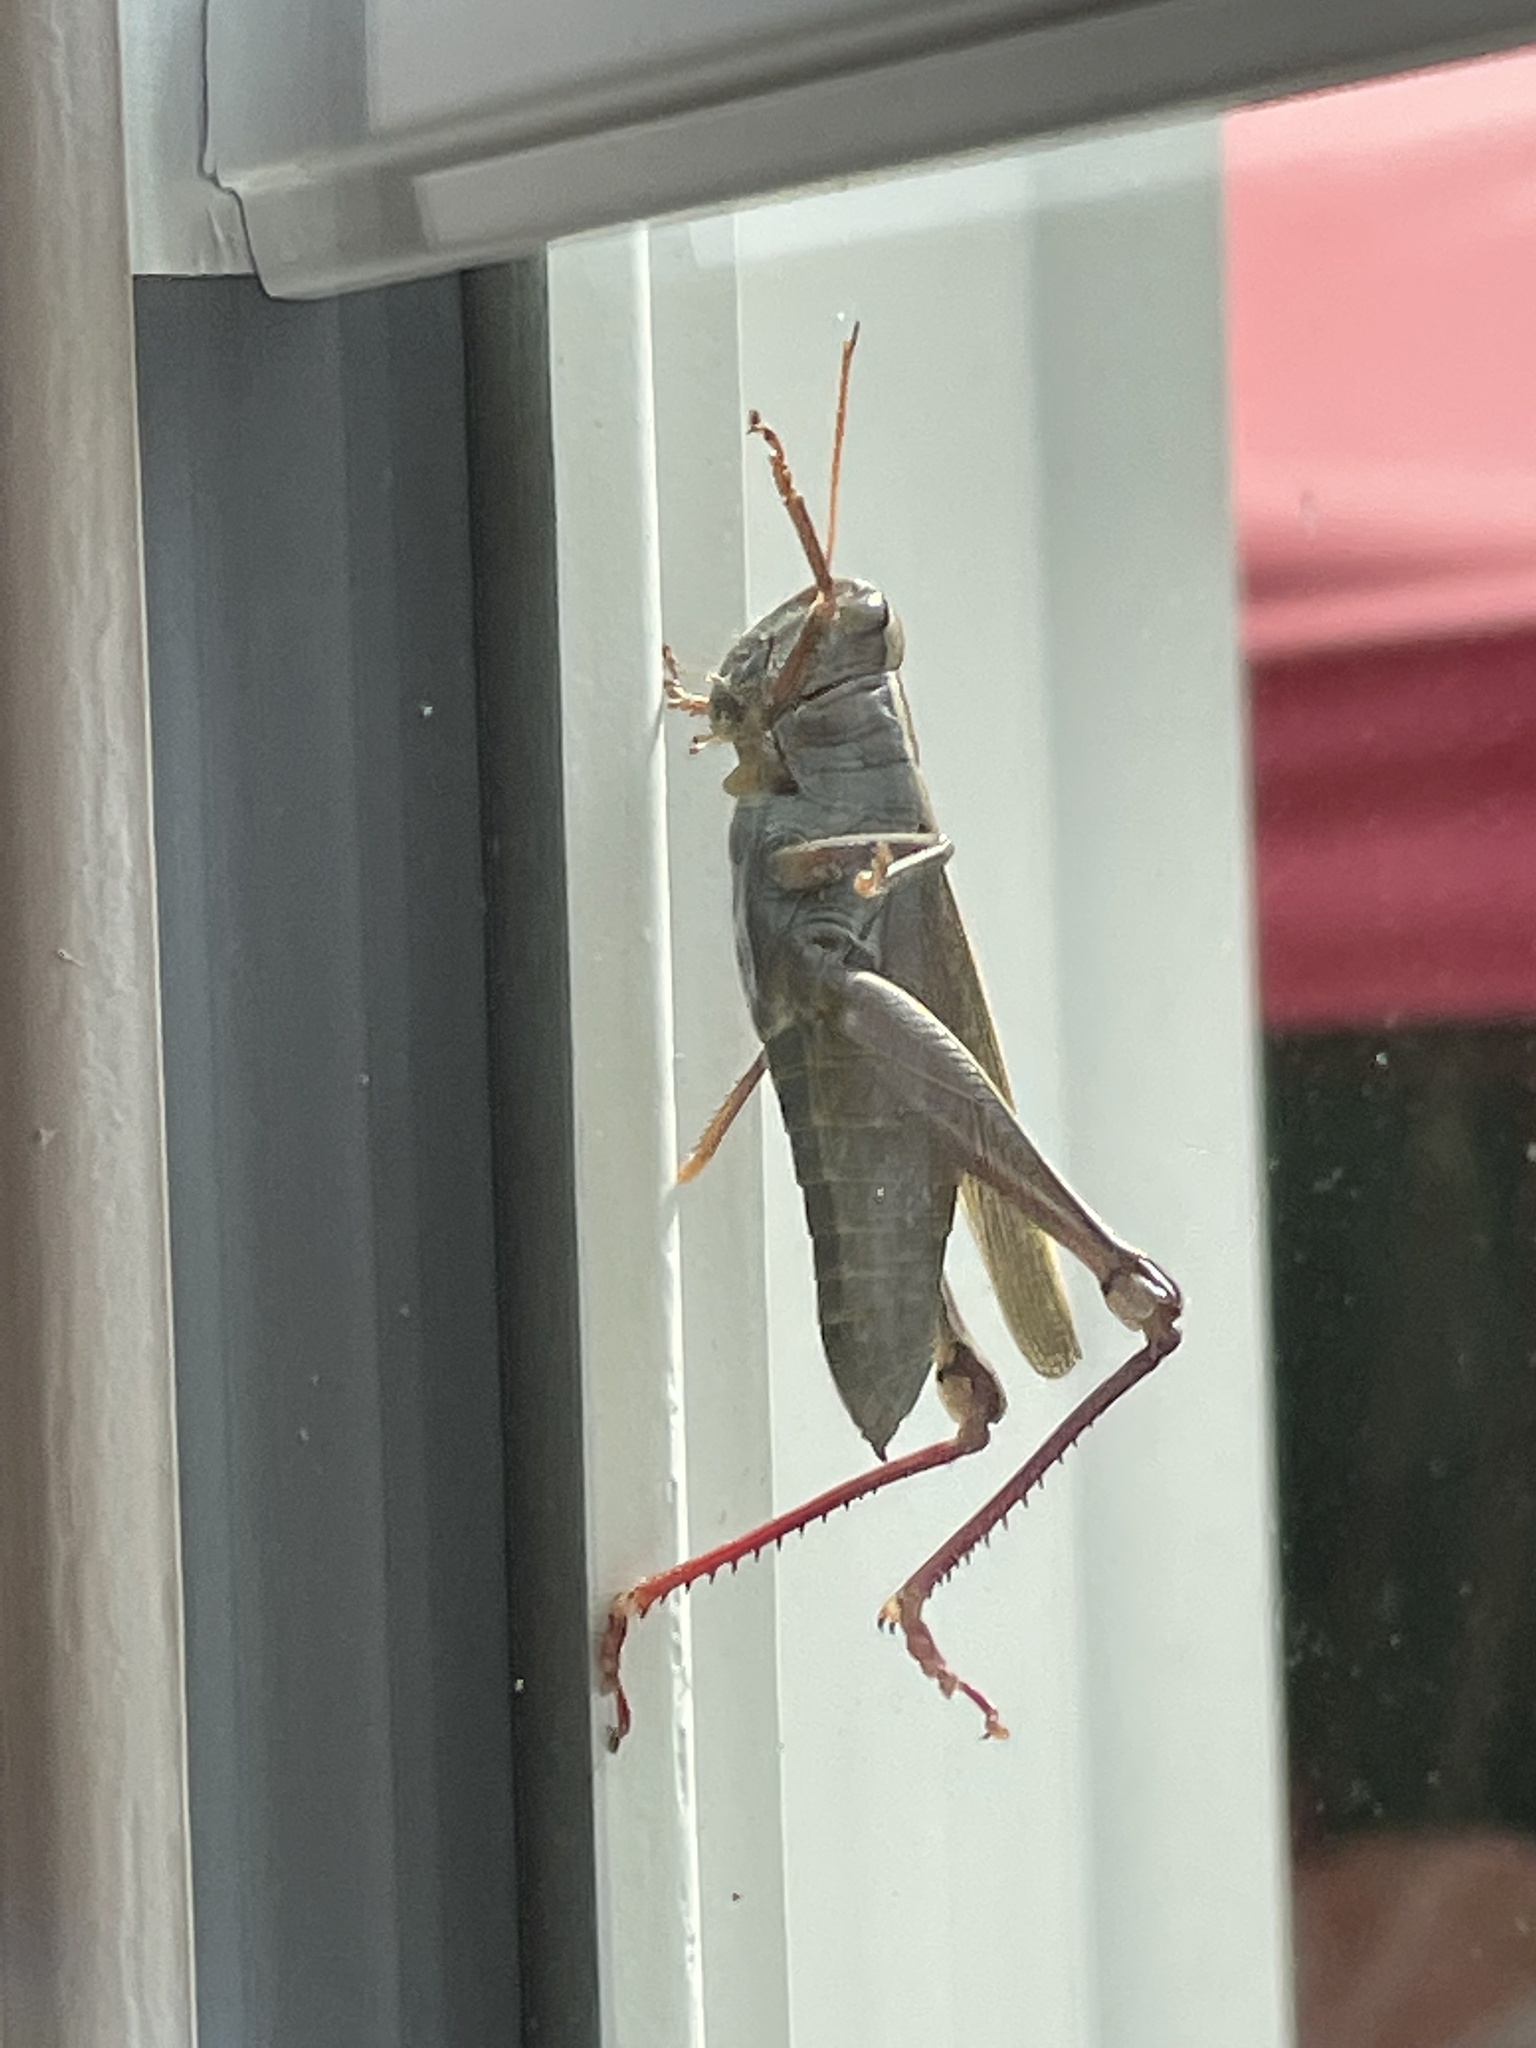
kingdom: Animalia
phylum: Arthropoda
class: Insecta
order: Orthoptera
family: Acrididae
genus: Melanoplus
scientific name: Melanoplus bivittatus
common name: Two-striped grasshopper
